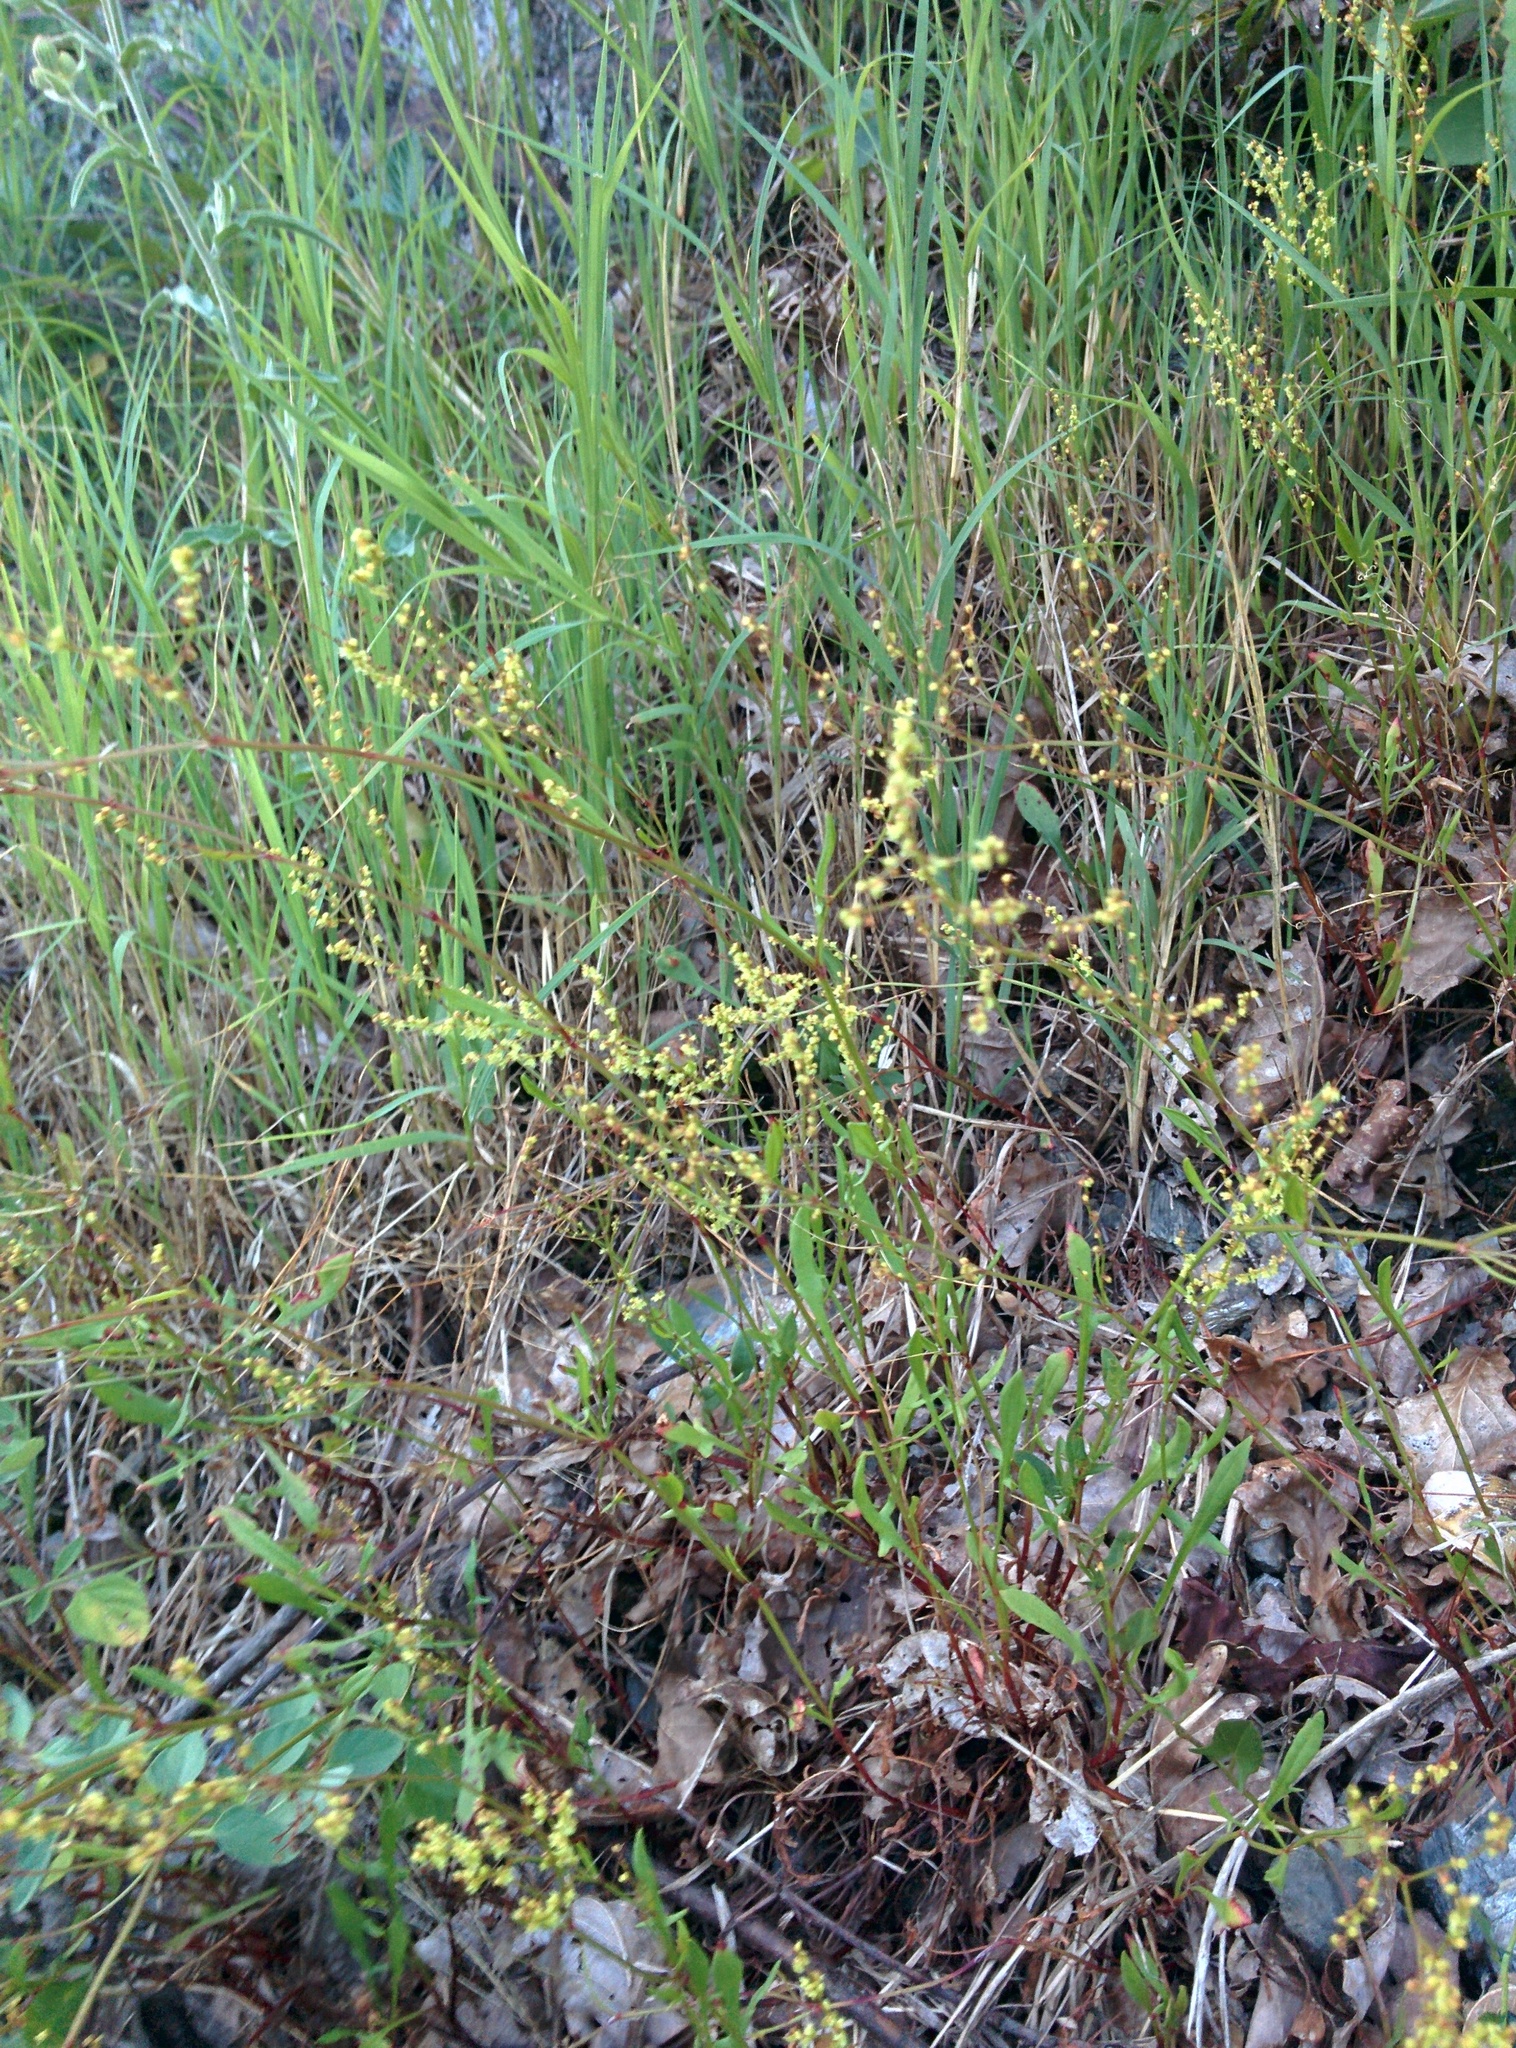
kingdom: Plantae
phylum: Tracheophyta
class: Magnoliopsida
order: Caryophyllales
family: Polygonaceae
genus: Rumex
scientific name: Rumex acetosella
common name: Common sheep sorrel
